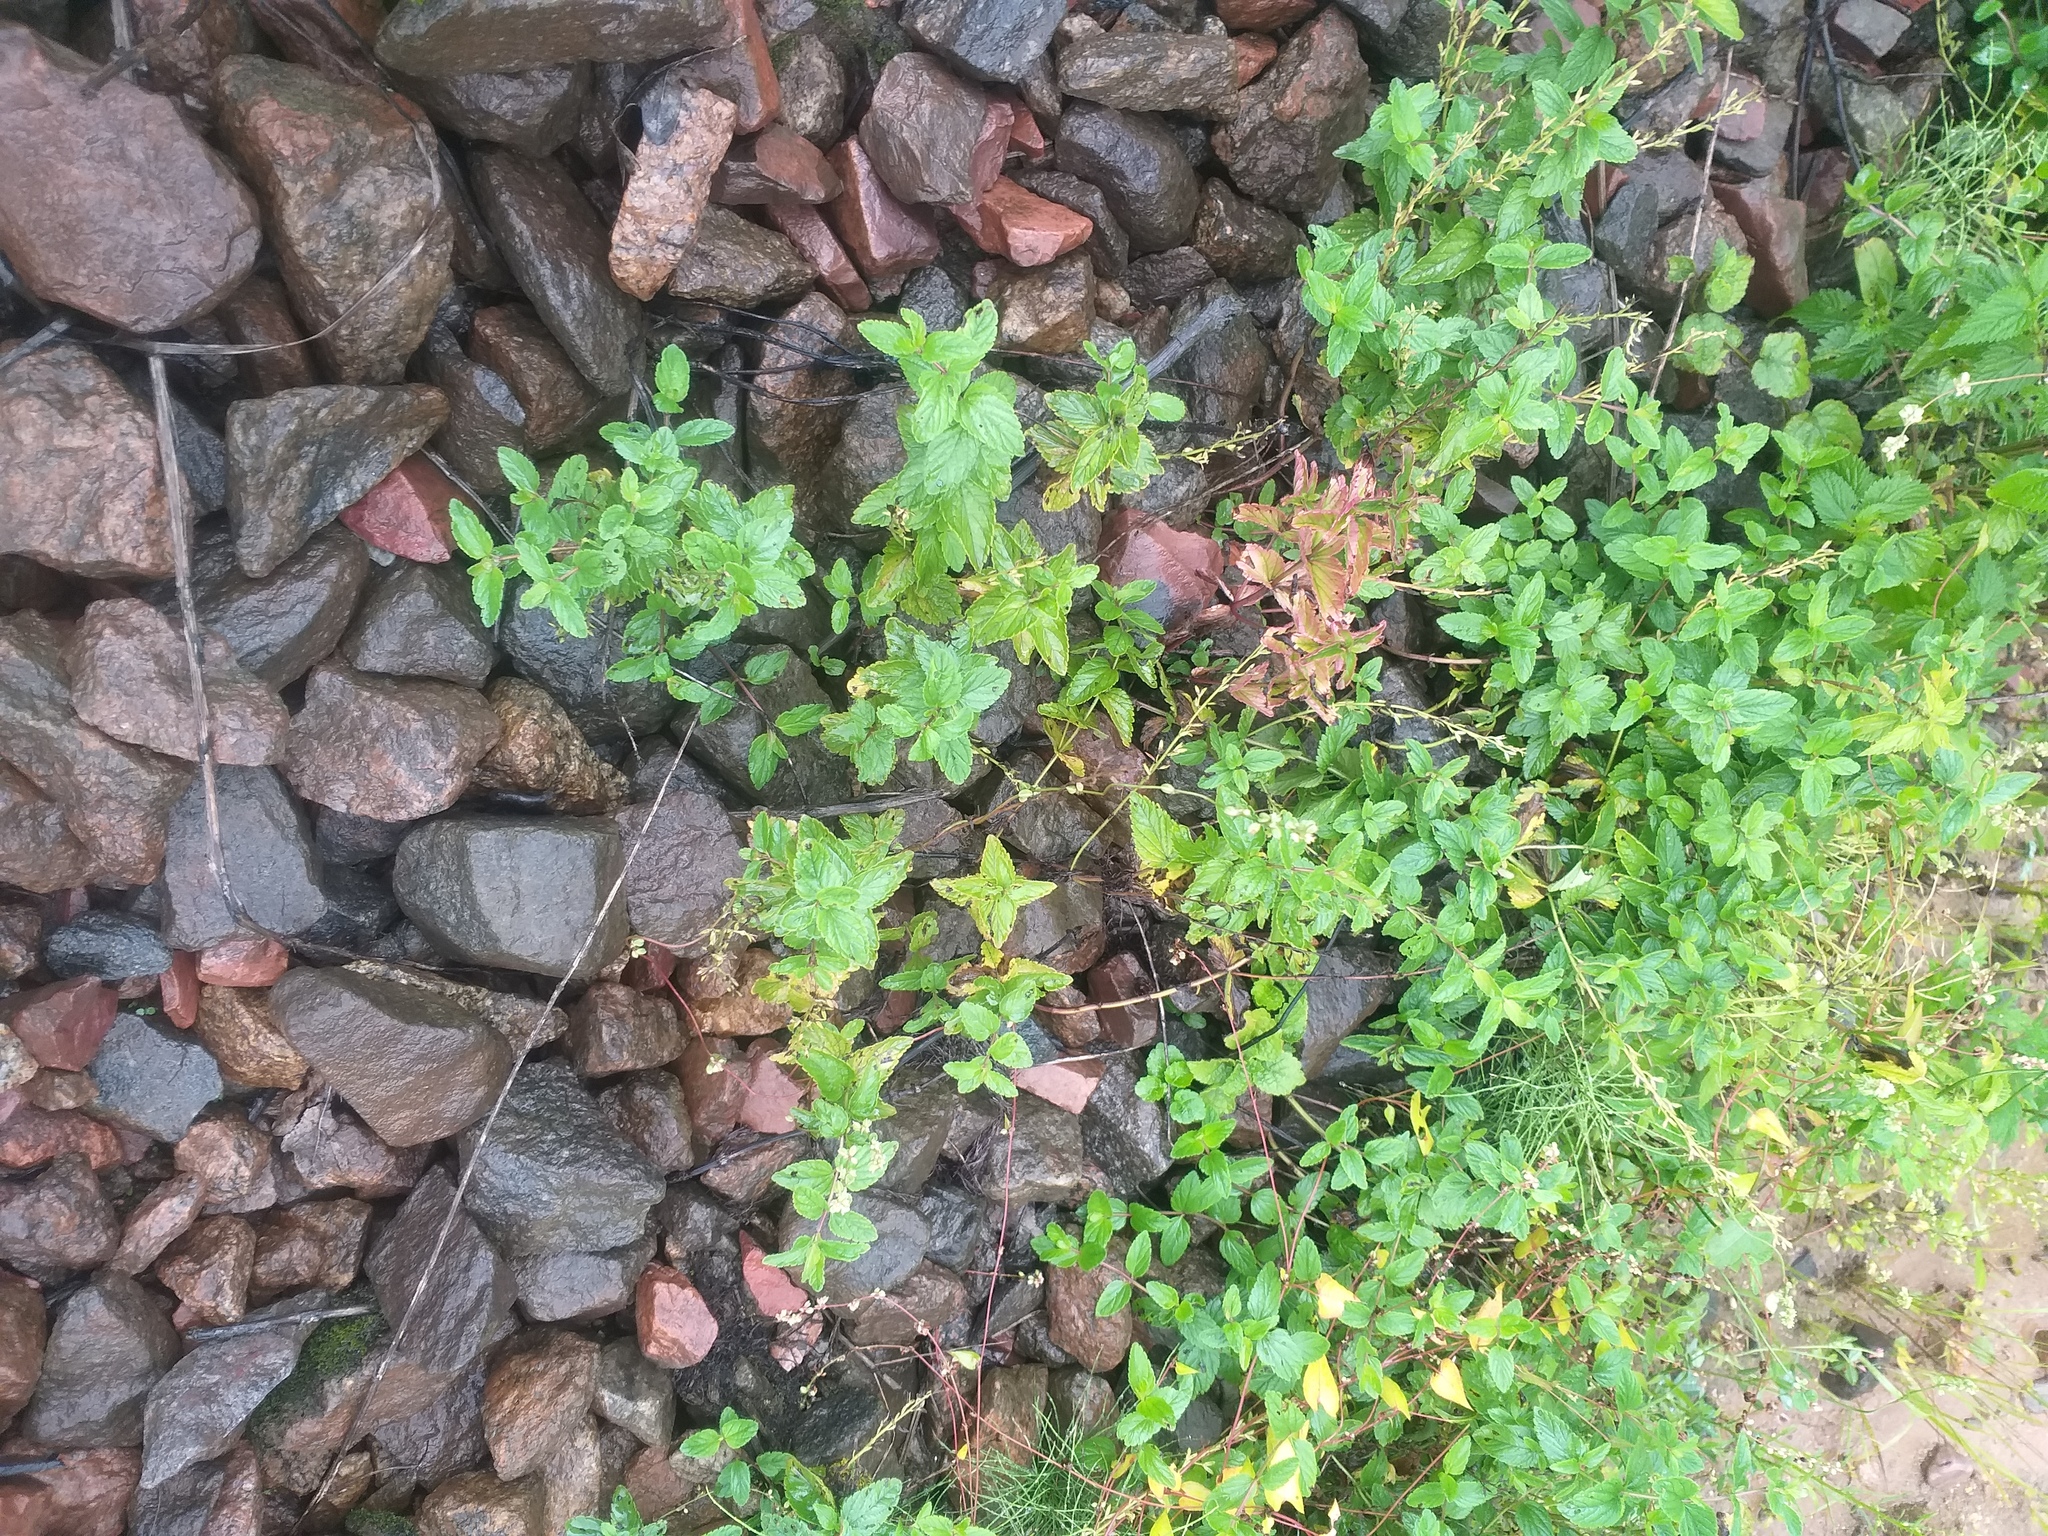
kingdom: Plantae
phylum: Tracheophyta
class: Magnoliopsida
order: Lamiales
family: Plantaginaceae
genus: Veronica
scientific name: Veronica chamaedrys
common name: Germander speedwell
